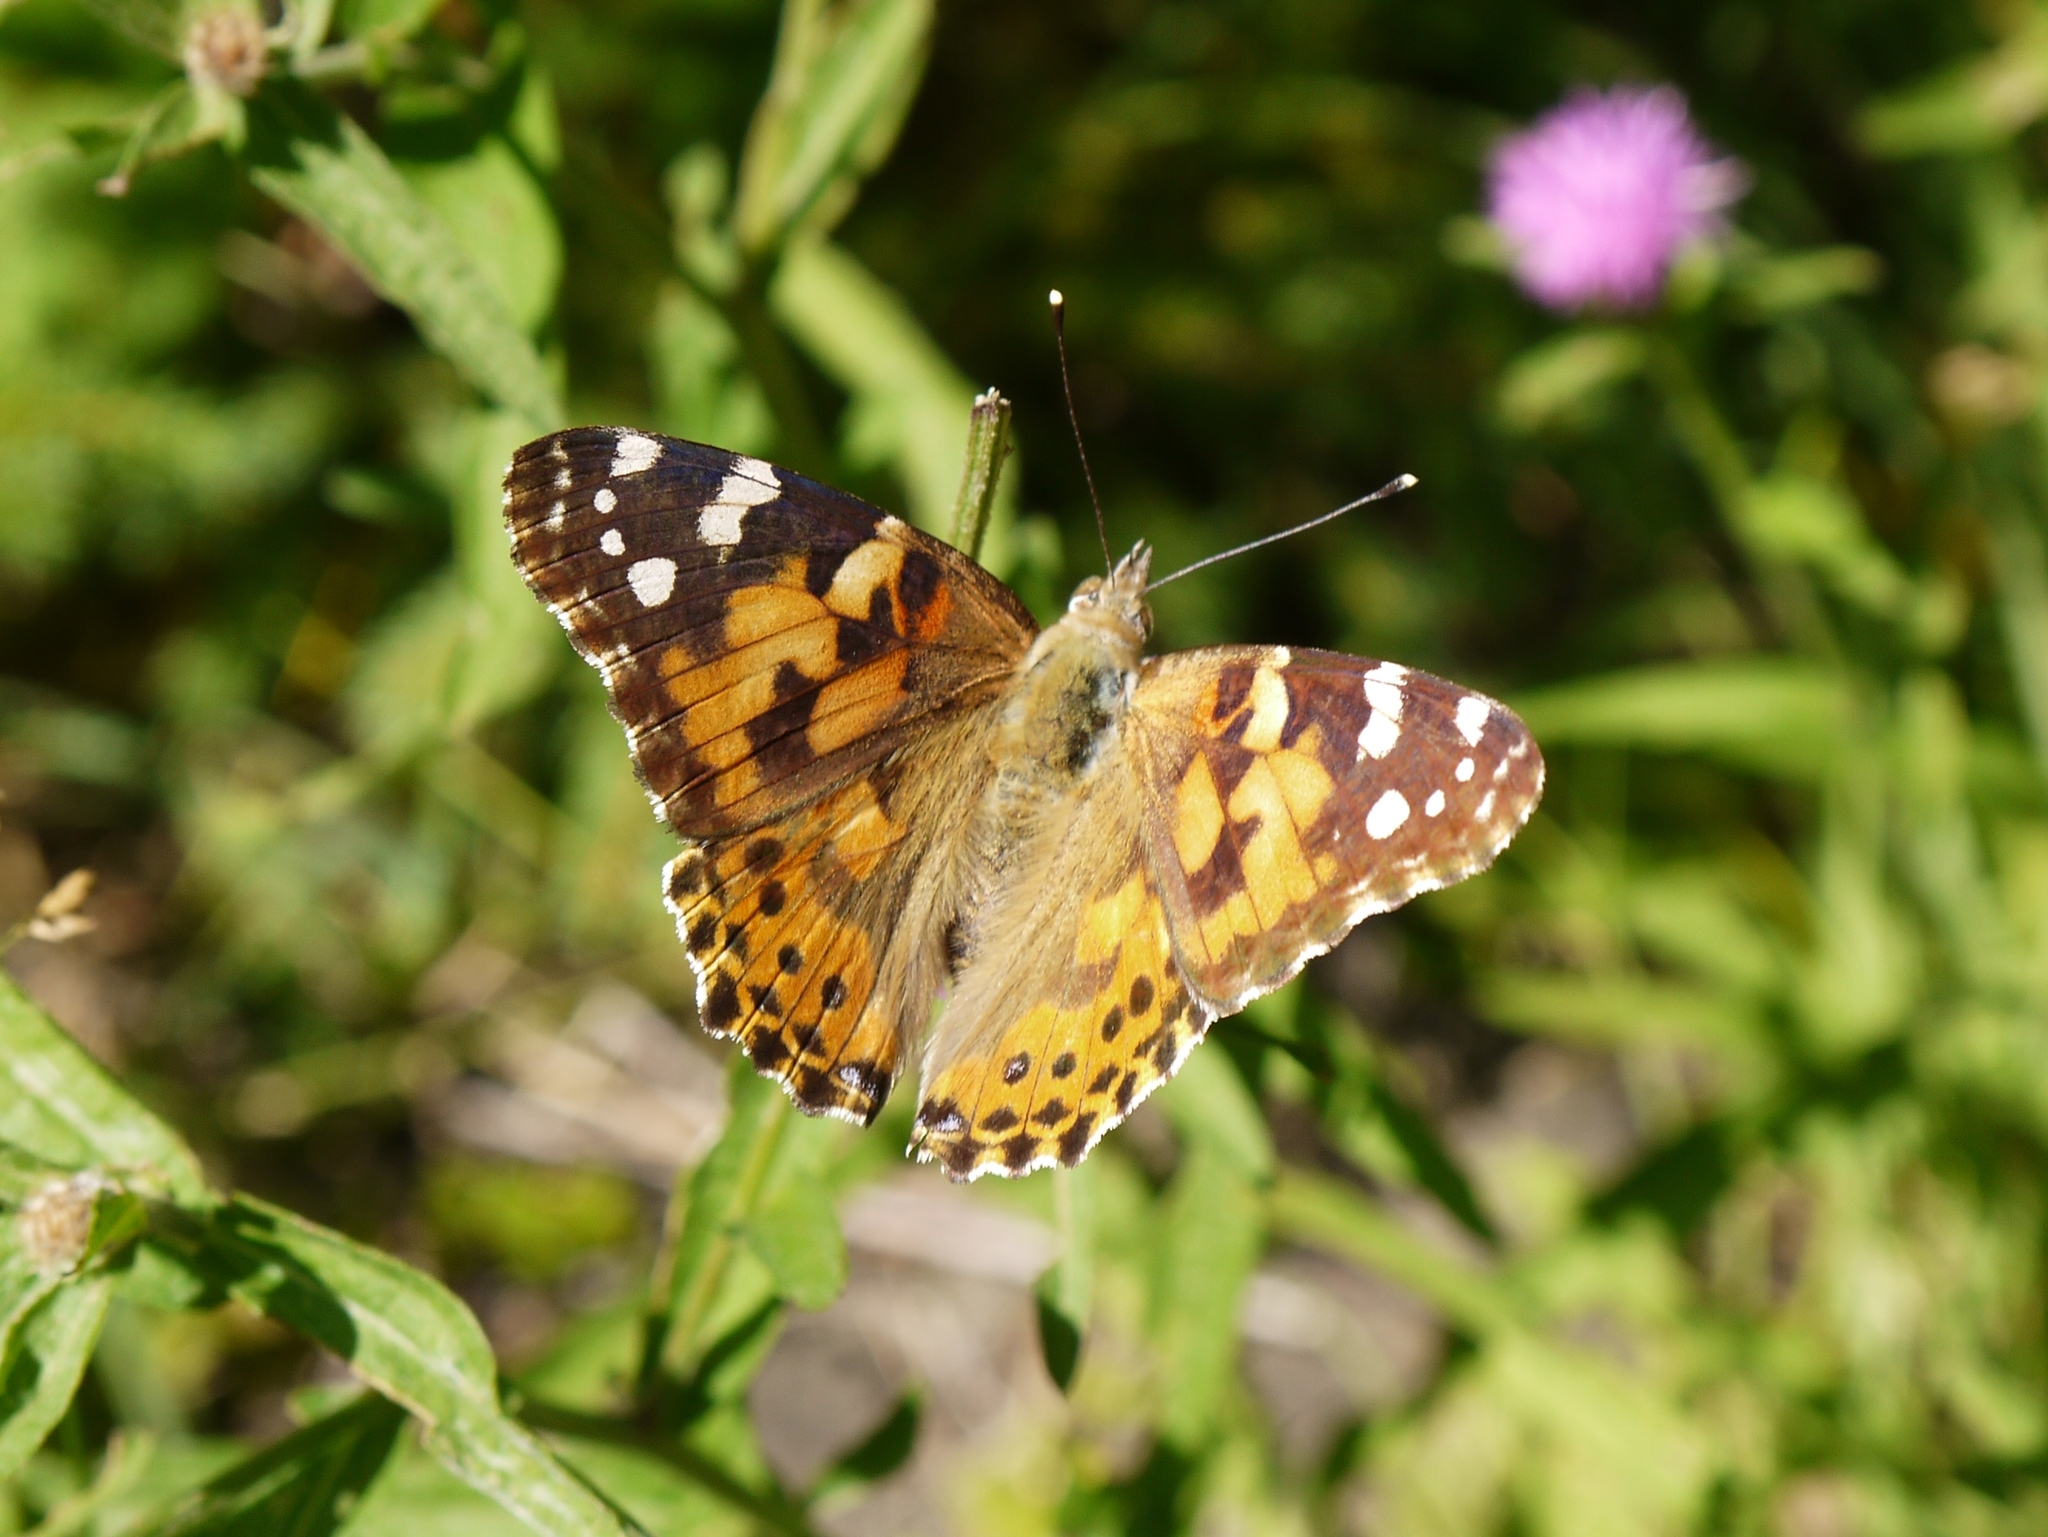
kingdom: Animalia
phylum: Arthropoda
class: Insecta
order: Lepidoptera
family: Nymphalidae
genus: Vanessa
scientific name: Vanessa cardui
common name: Painted lady
